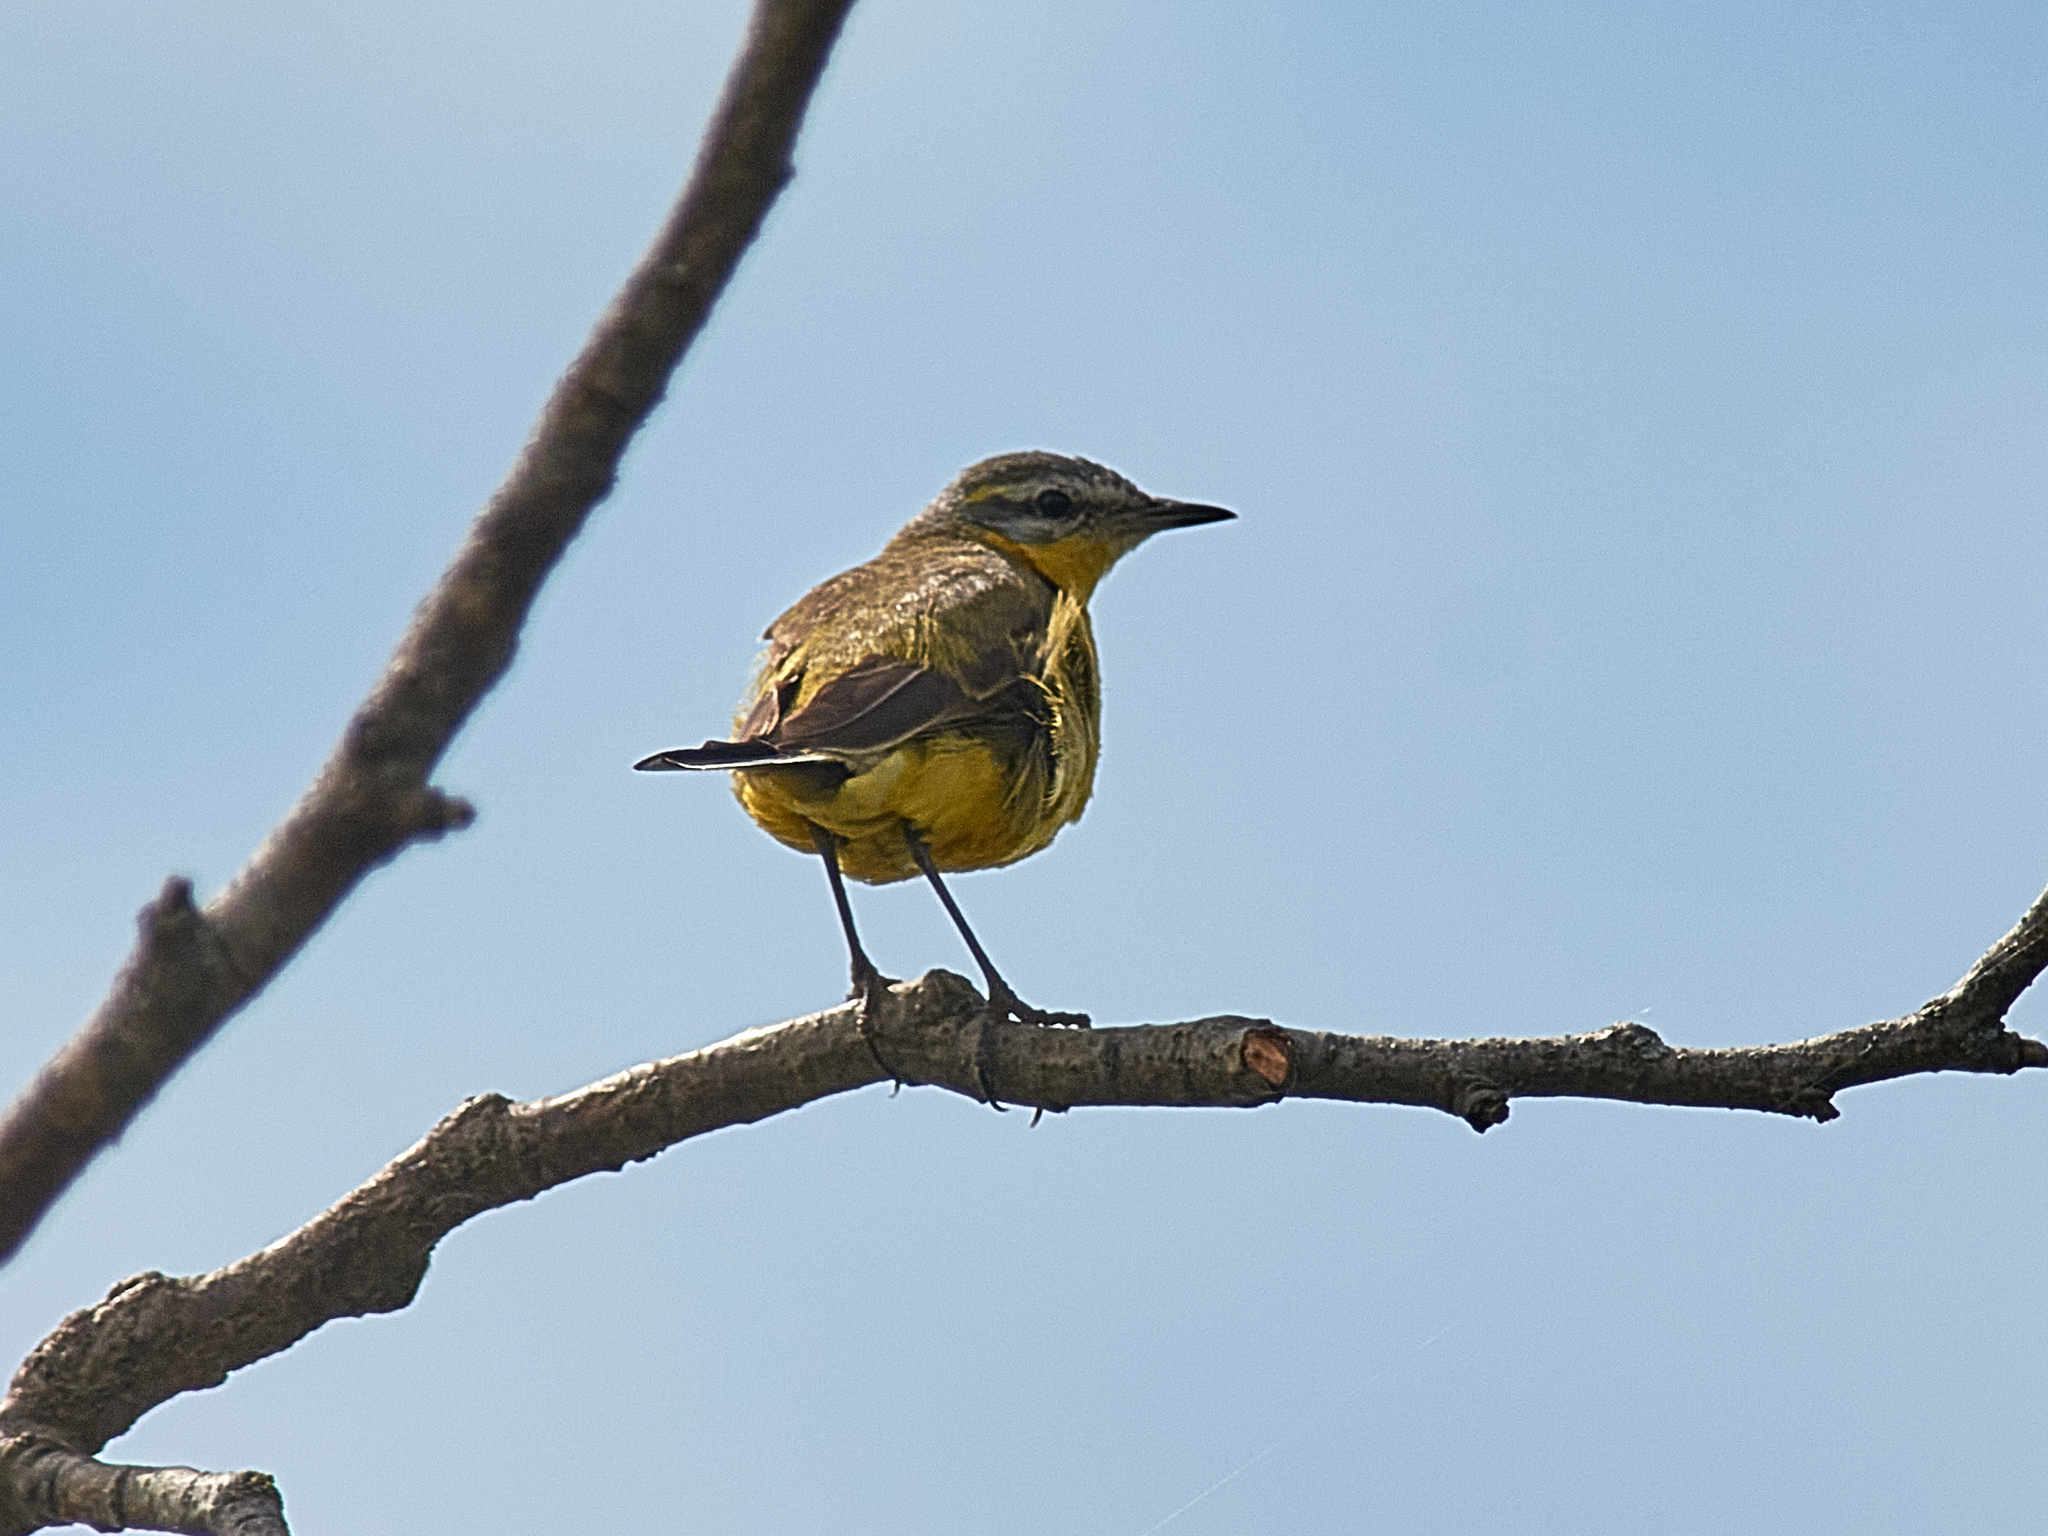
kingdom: Animalia
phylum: Chordata
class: Aves
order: Passeriformes
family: Motacillidae
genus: Motacilla
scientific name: Motacilla flava
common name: Western yellow wagtail
